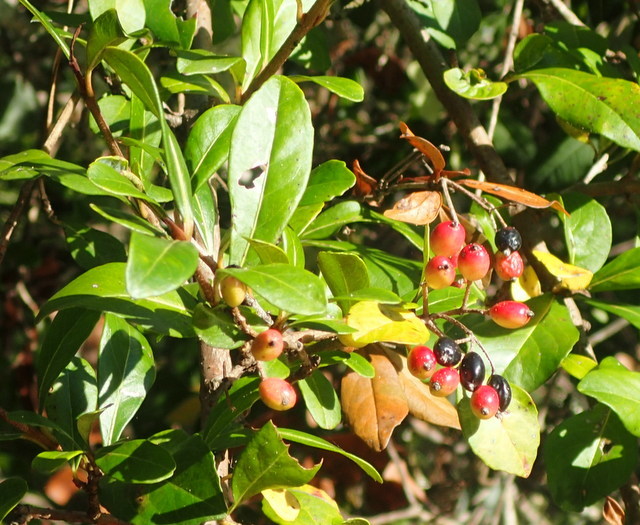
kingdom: Plantae
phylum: Tracheophyta
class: Magnoliopsida
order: Dipsacales
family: Viburnaceae
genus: Viburnum
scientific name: Viburnum obovatum
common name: Walter's viburnum
